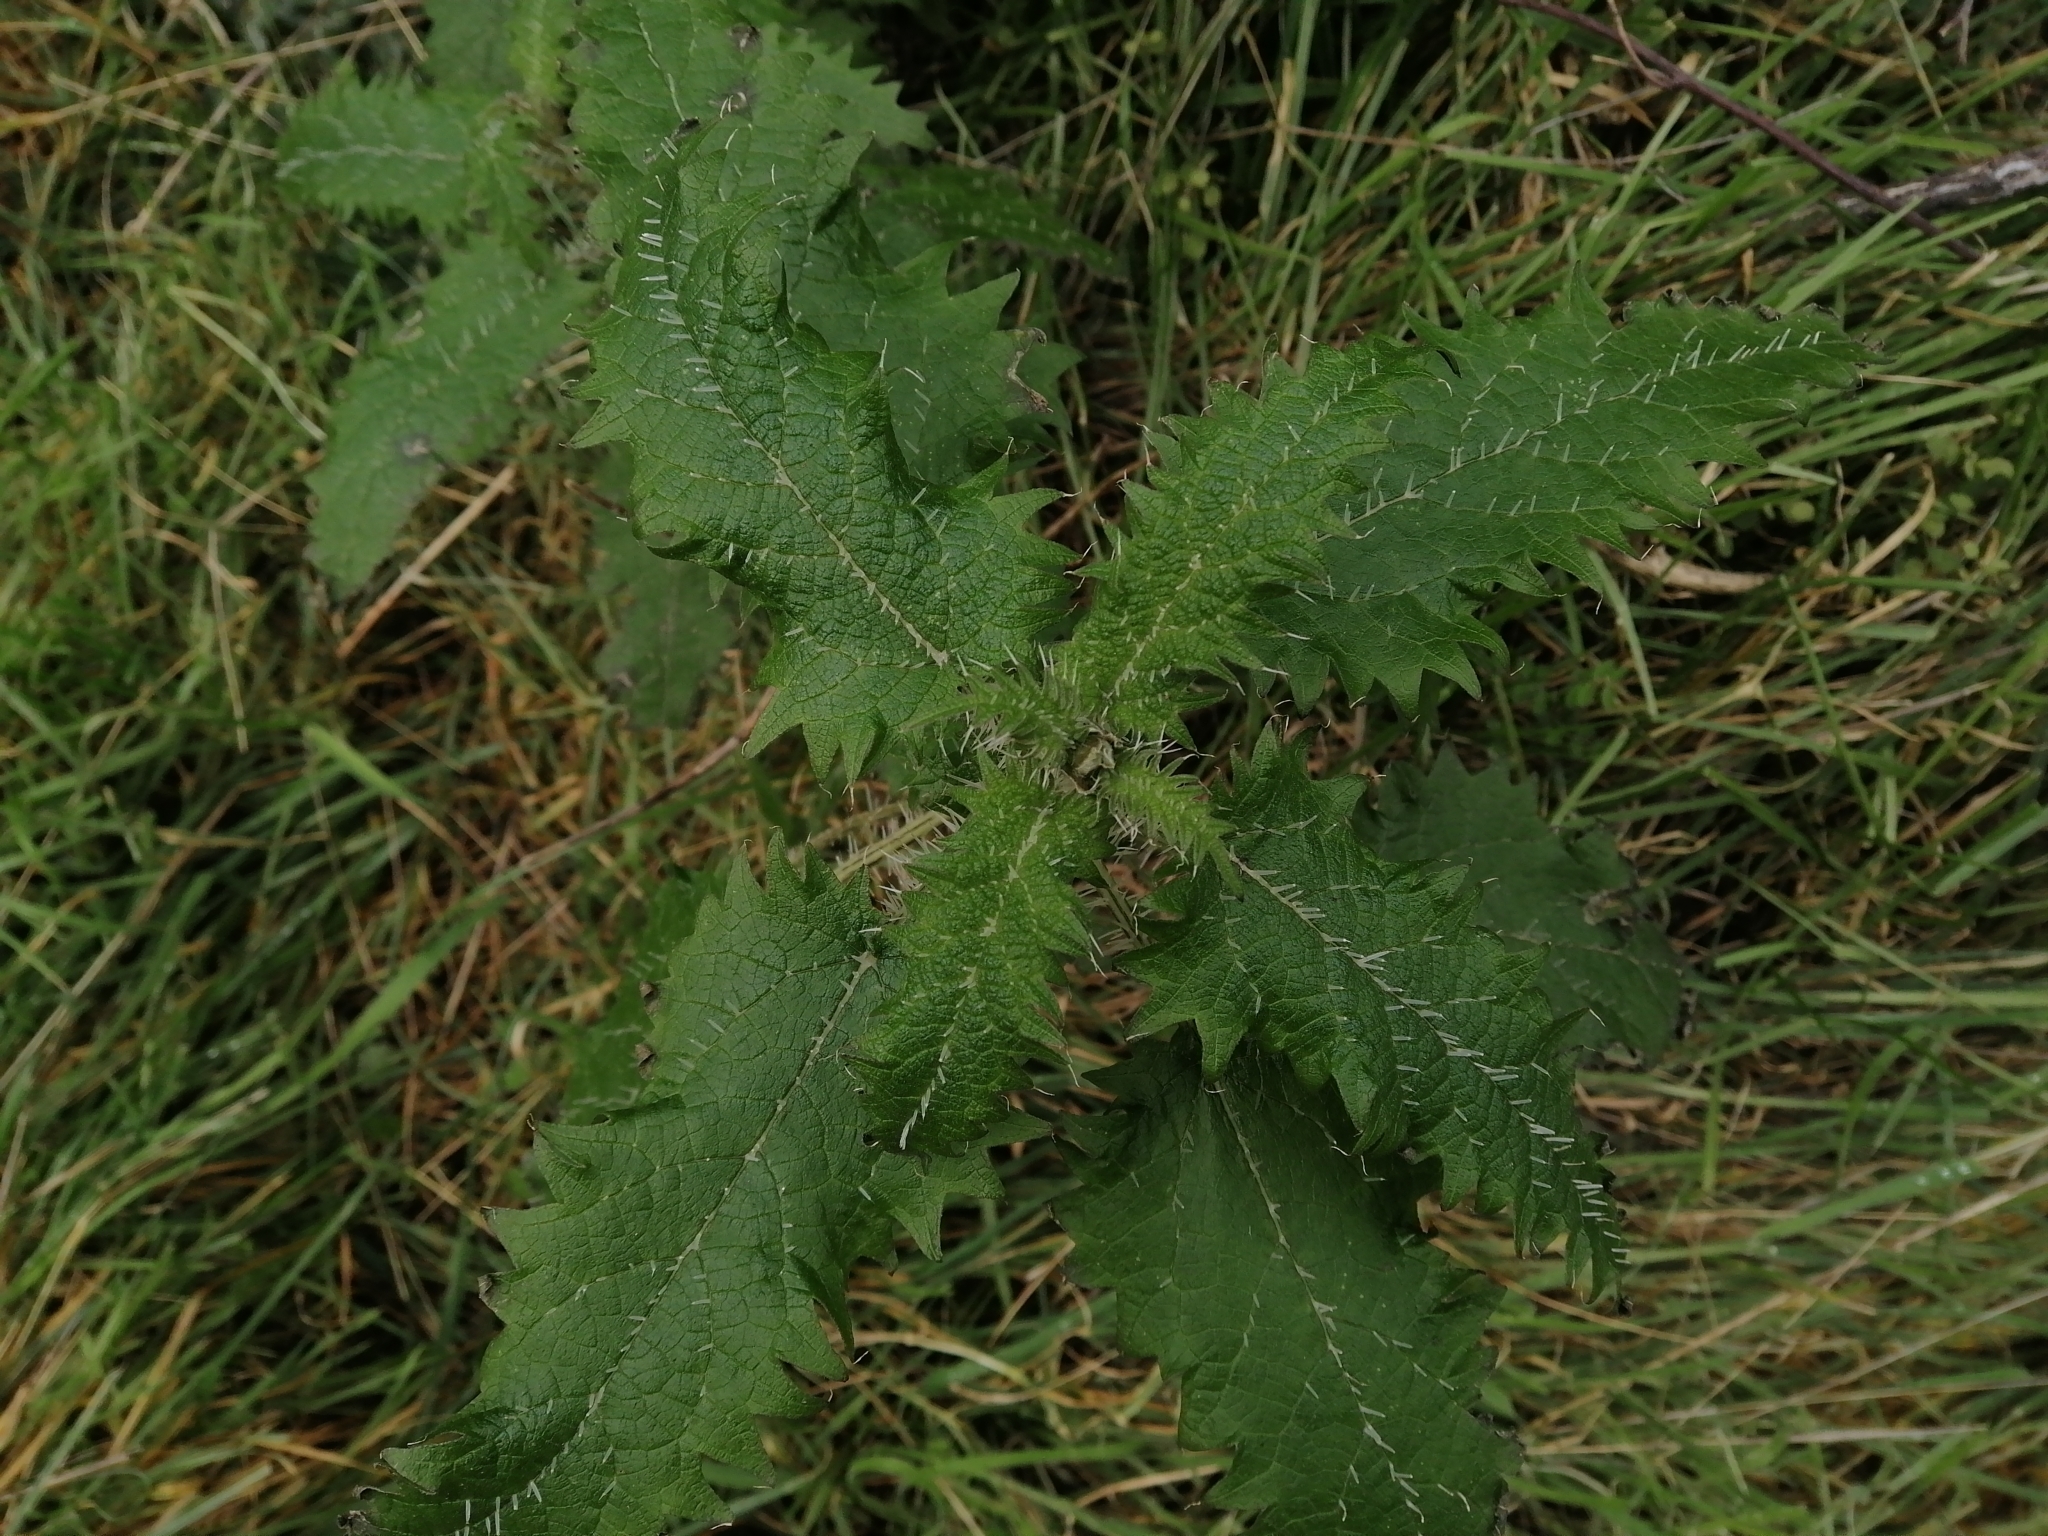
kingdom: Plantae
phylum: Tracheophyta
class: Magnoliopsida
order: Rosales
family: Urticaceae
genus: Urtica
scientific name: Urtica ferox
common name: Tree nettle
